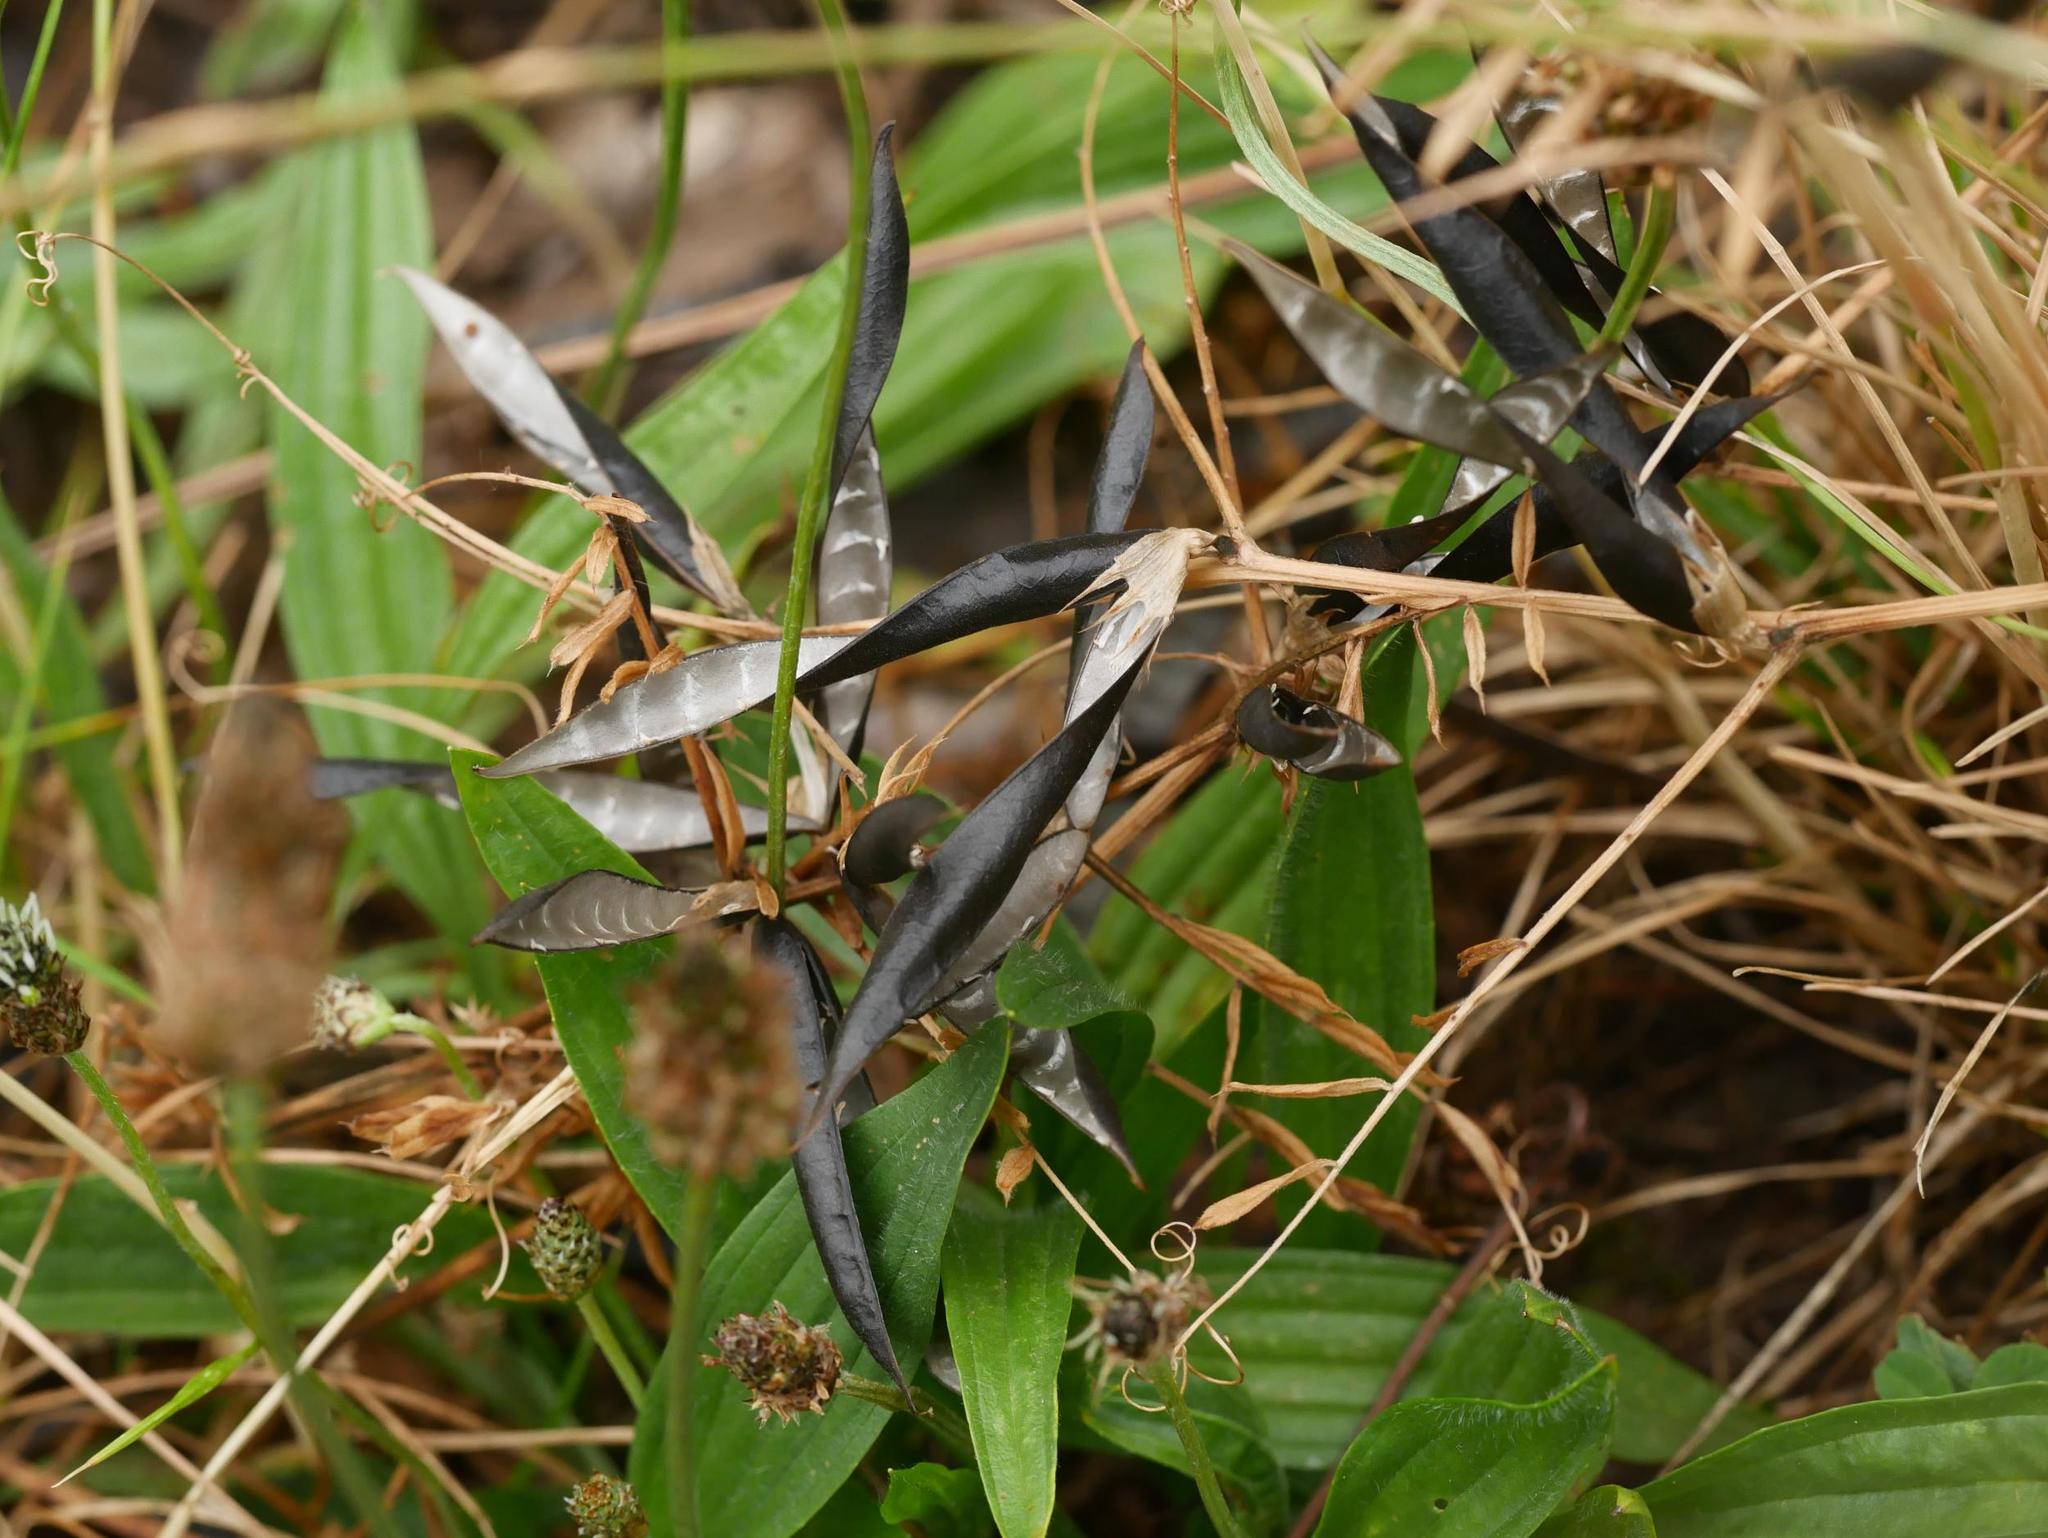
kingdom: Plantae
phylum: Tracheophyta
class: Magnoliopsida
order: Lamiales
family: Plantaginaceae
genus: Plantago
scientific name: Plantago lanceolata
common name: Ribwort plantain
